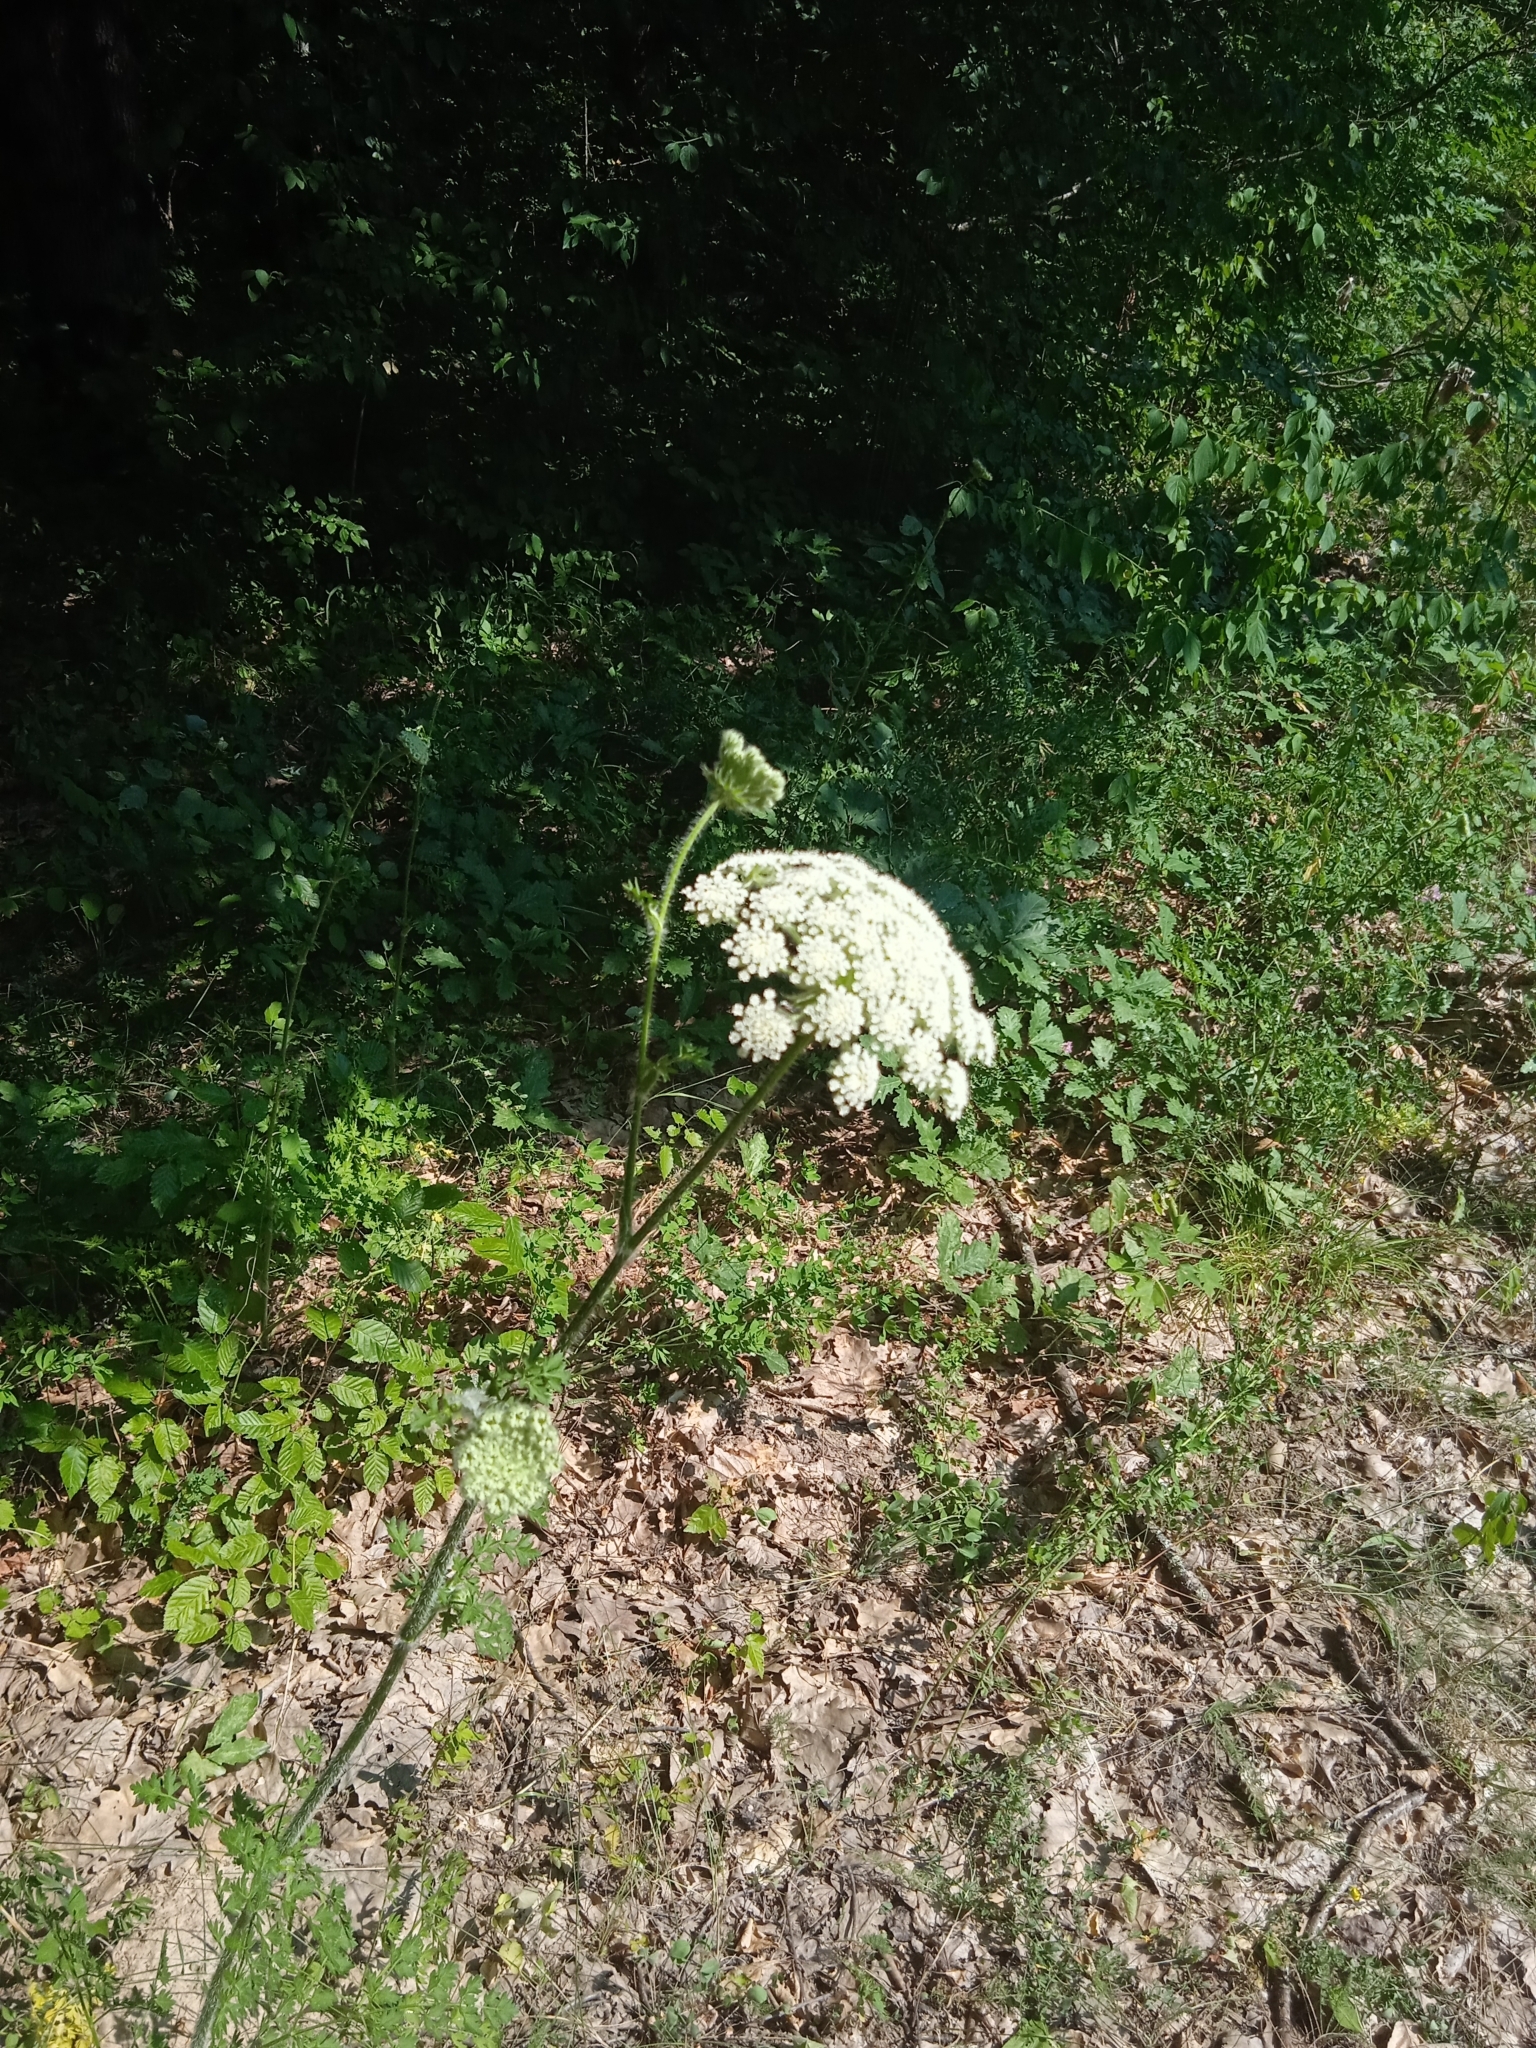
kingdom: Plantae
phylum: Tracheophyta
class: Magnoliopsida
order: Apiales
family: Apiaceae
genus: Silphiodaucus
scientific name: Silphiodaucus hispidus
